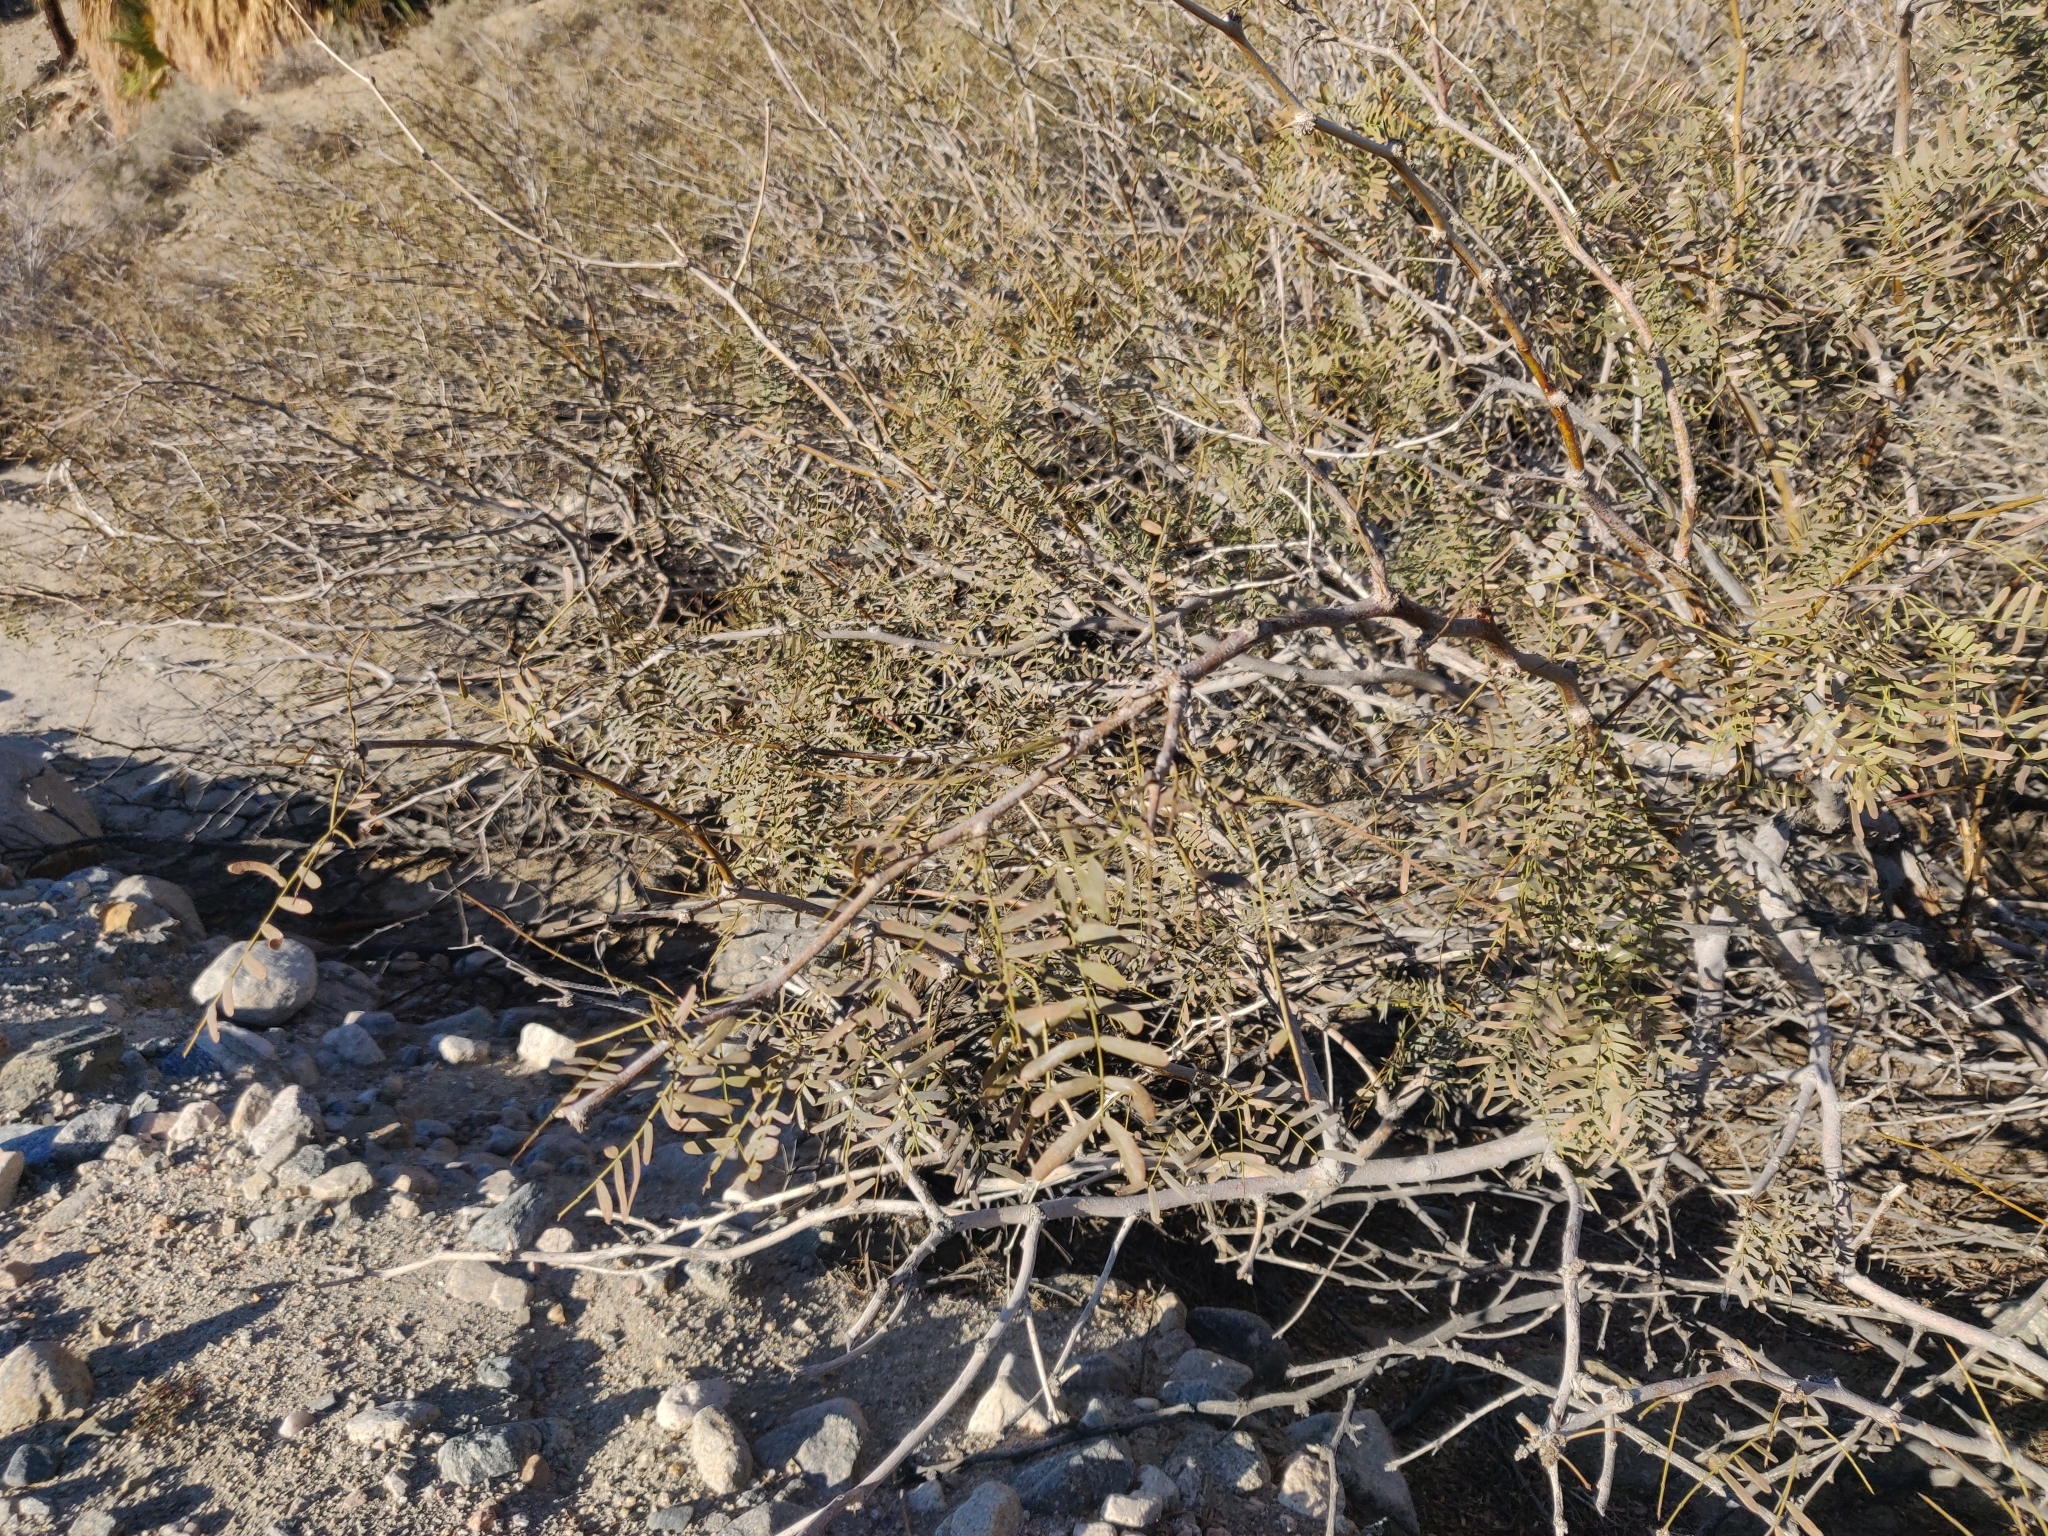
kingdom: Plantae
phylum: Tracheophyta
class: Magnoliopsida
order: Fabales
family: Fabaceae
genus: Prosopis
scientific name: Prosopis pubescens
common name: Screw-bean
